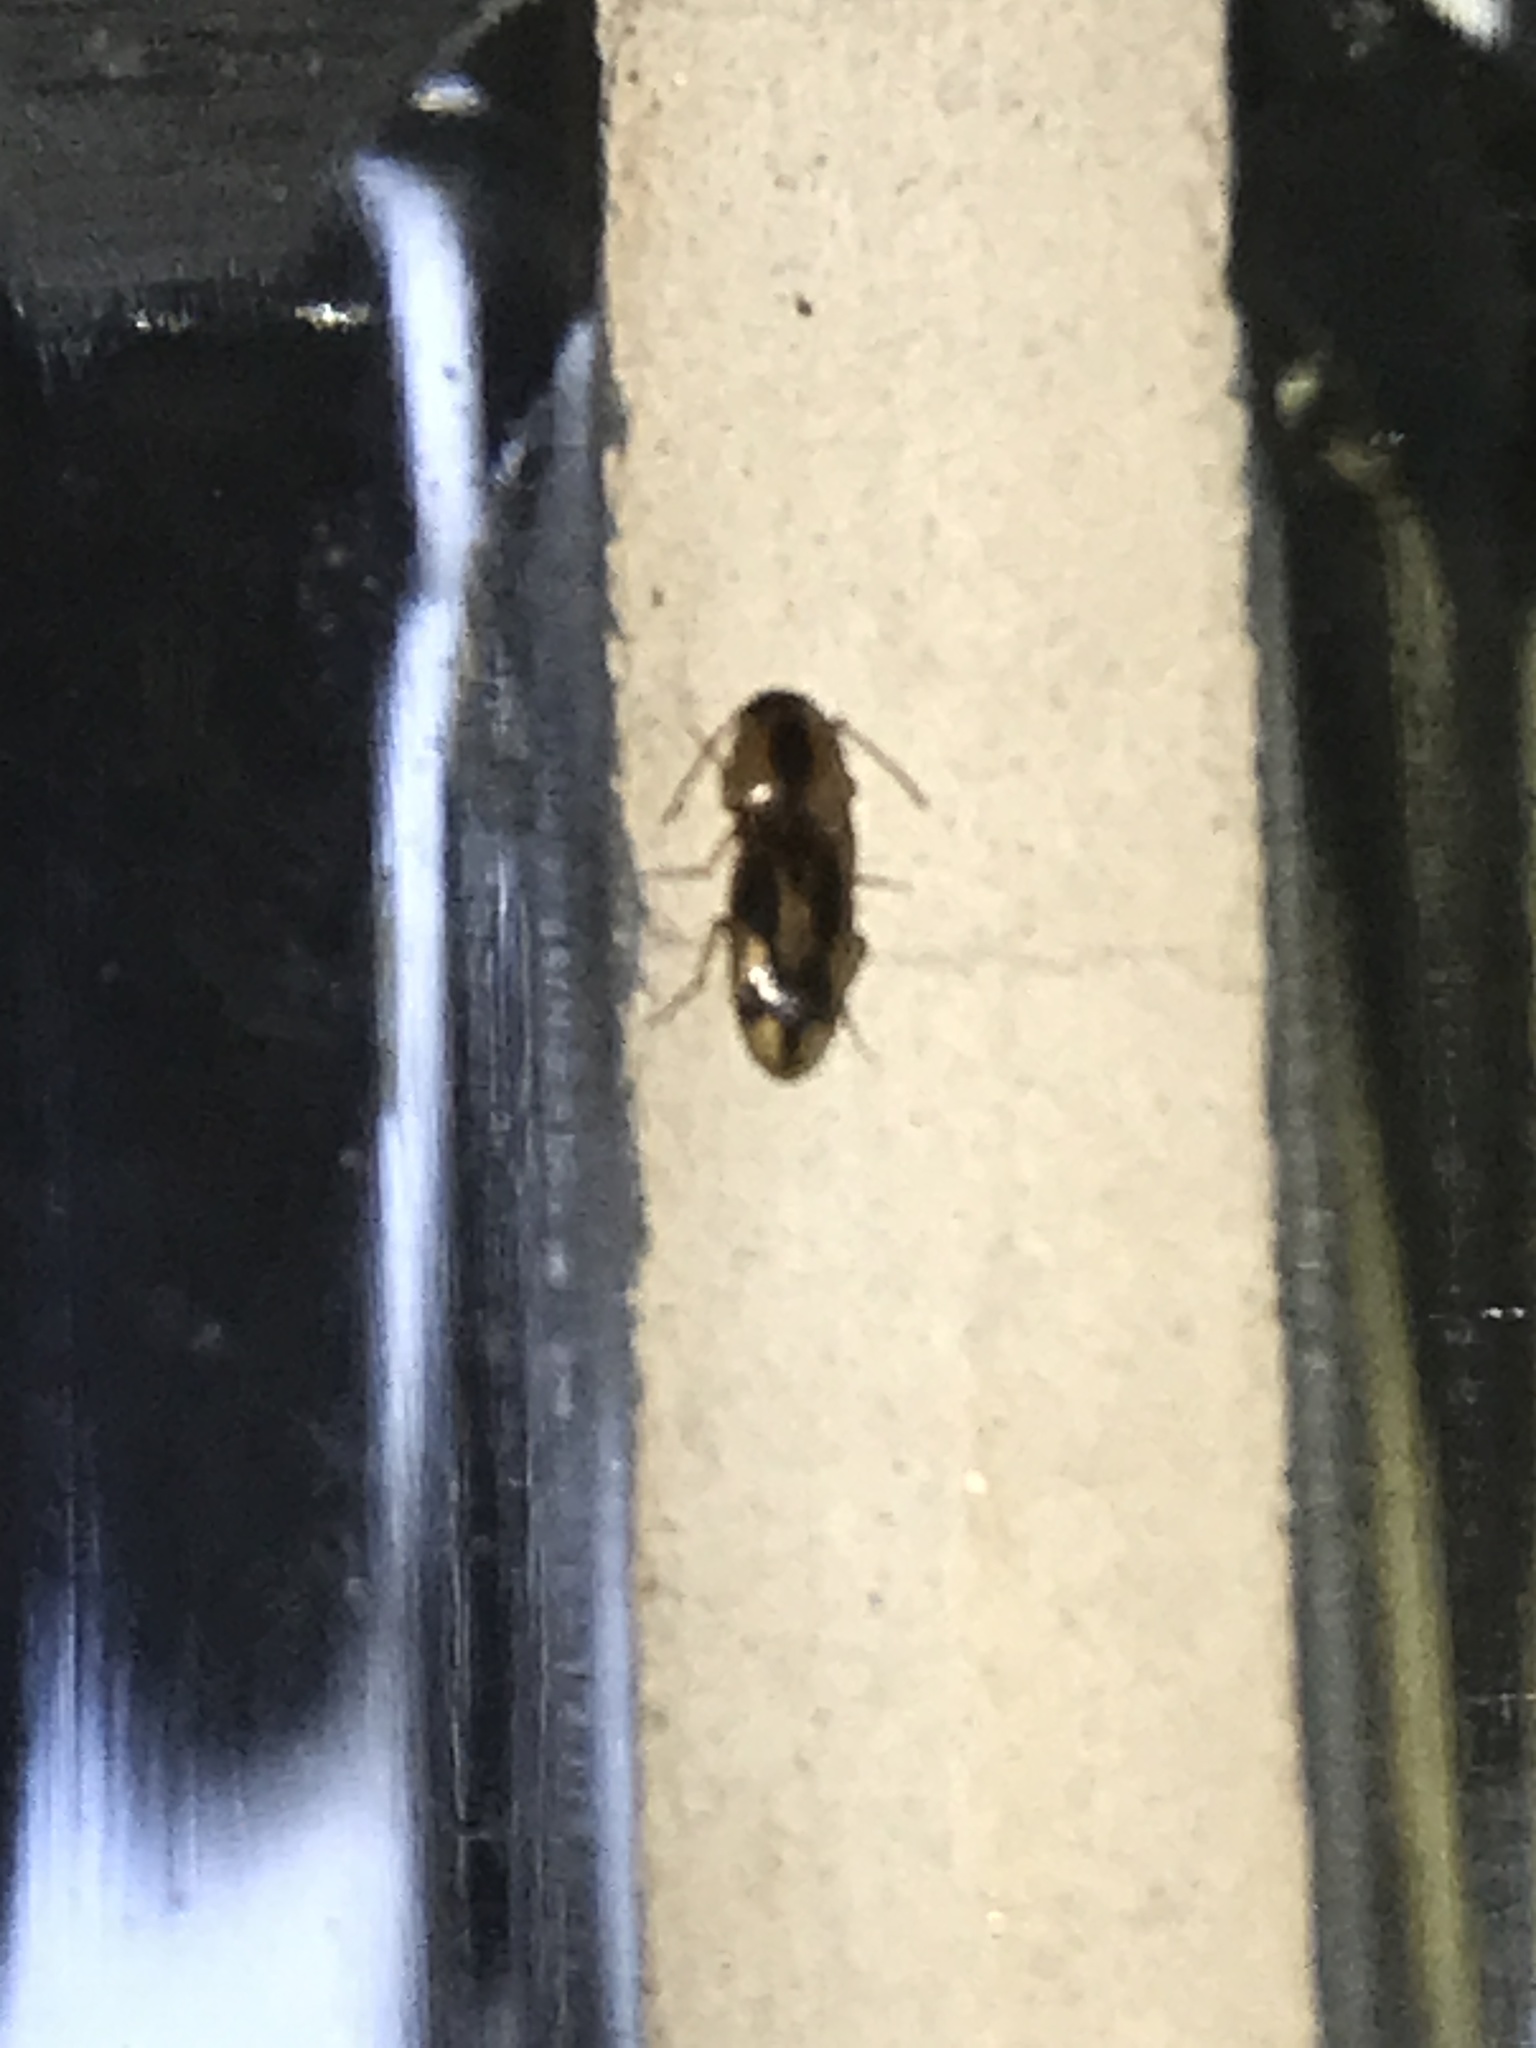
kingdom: Animalia
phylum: Arthropoda
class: Insecta
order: Coleoptera
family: Elateridae
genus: Aeolus
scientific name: Aeolus mellillus
